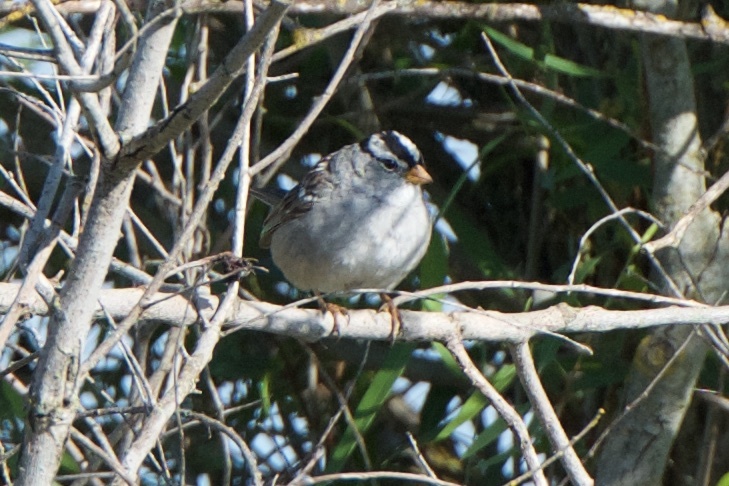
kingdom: Animalia
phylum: Chordata
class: Aves
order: Passeriformes
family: Passerellidae
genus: Zonotrichia
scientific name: Zonotrichia leucophrys
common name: White-crowned sparrow
